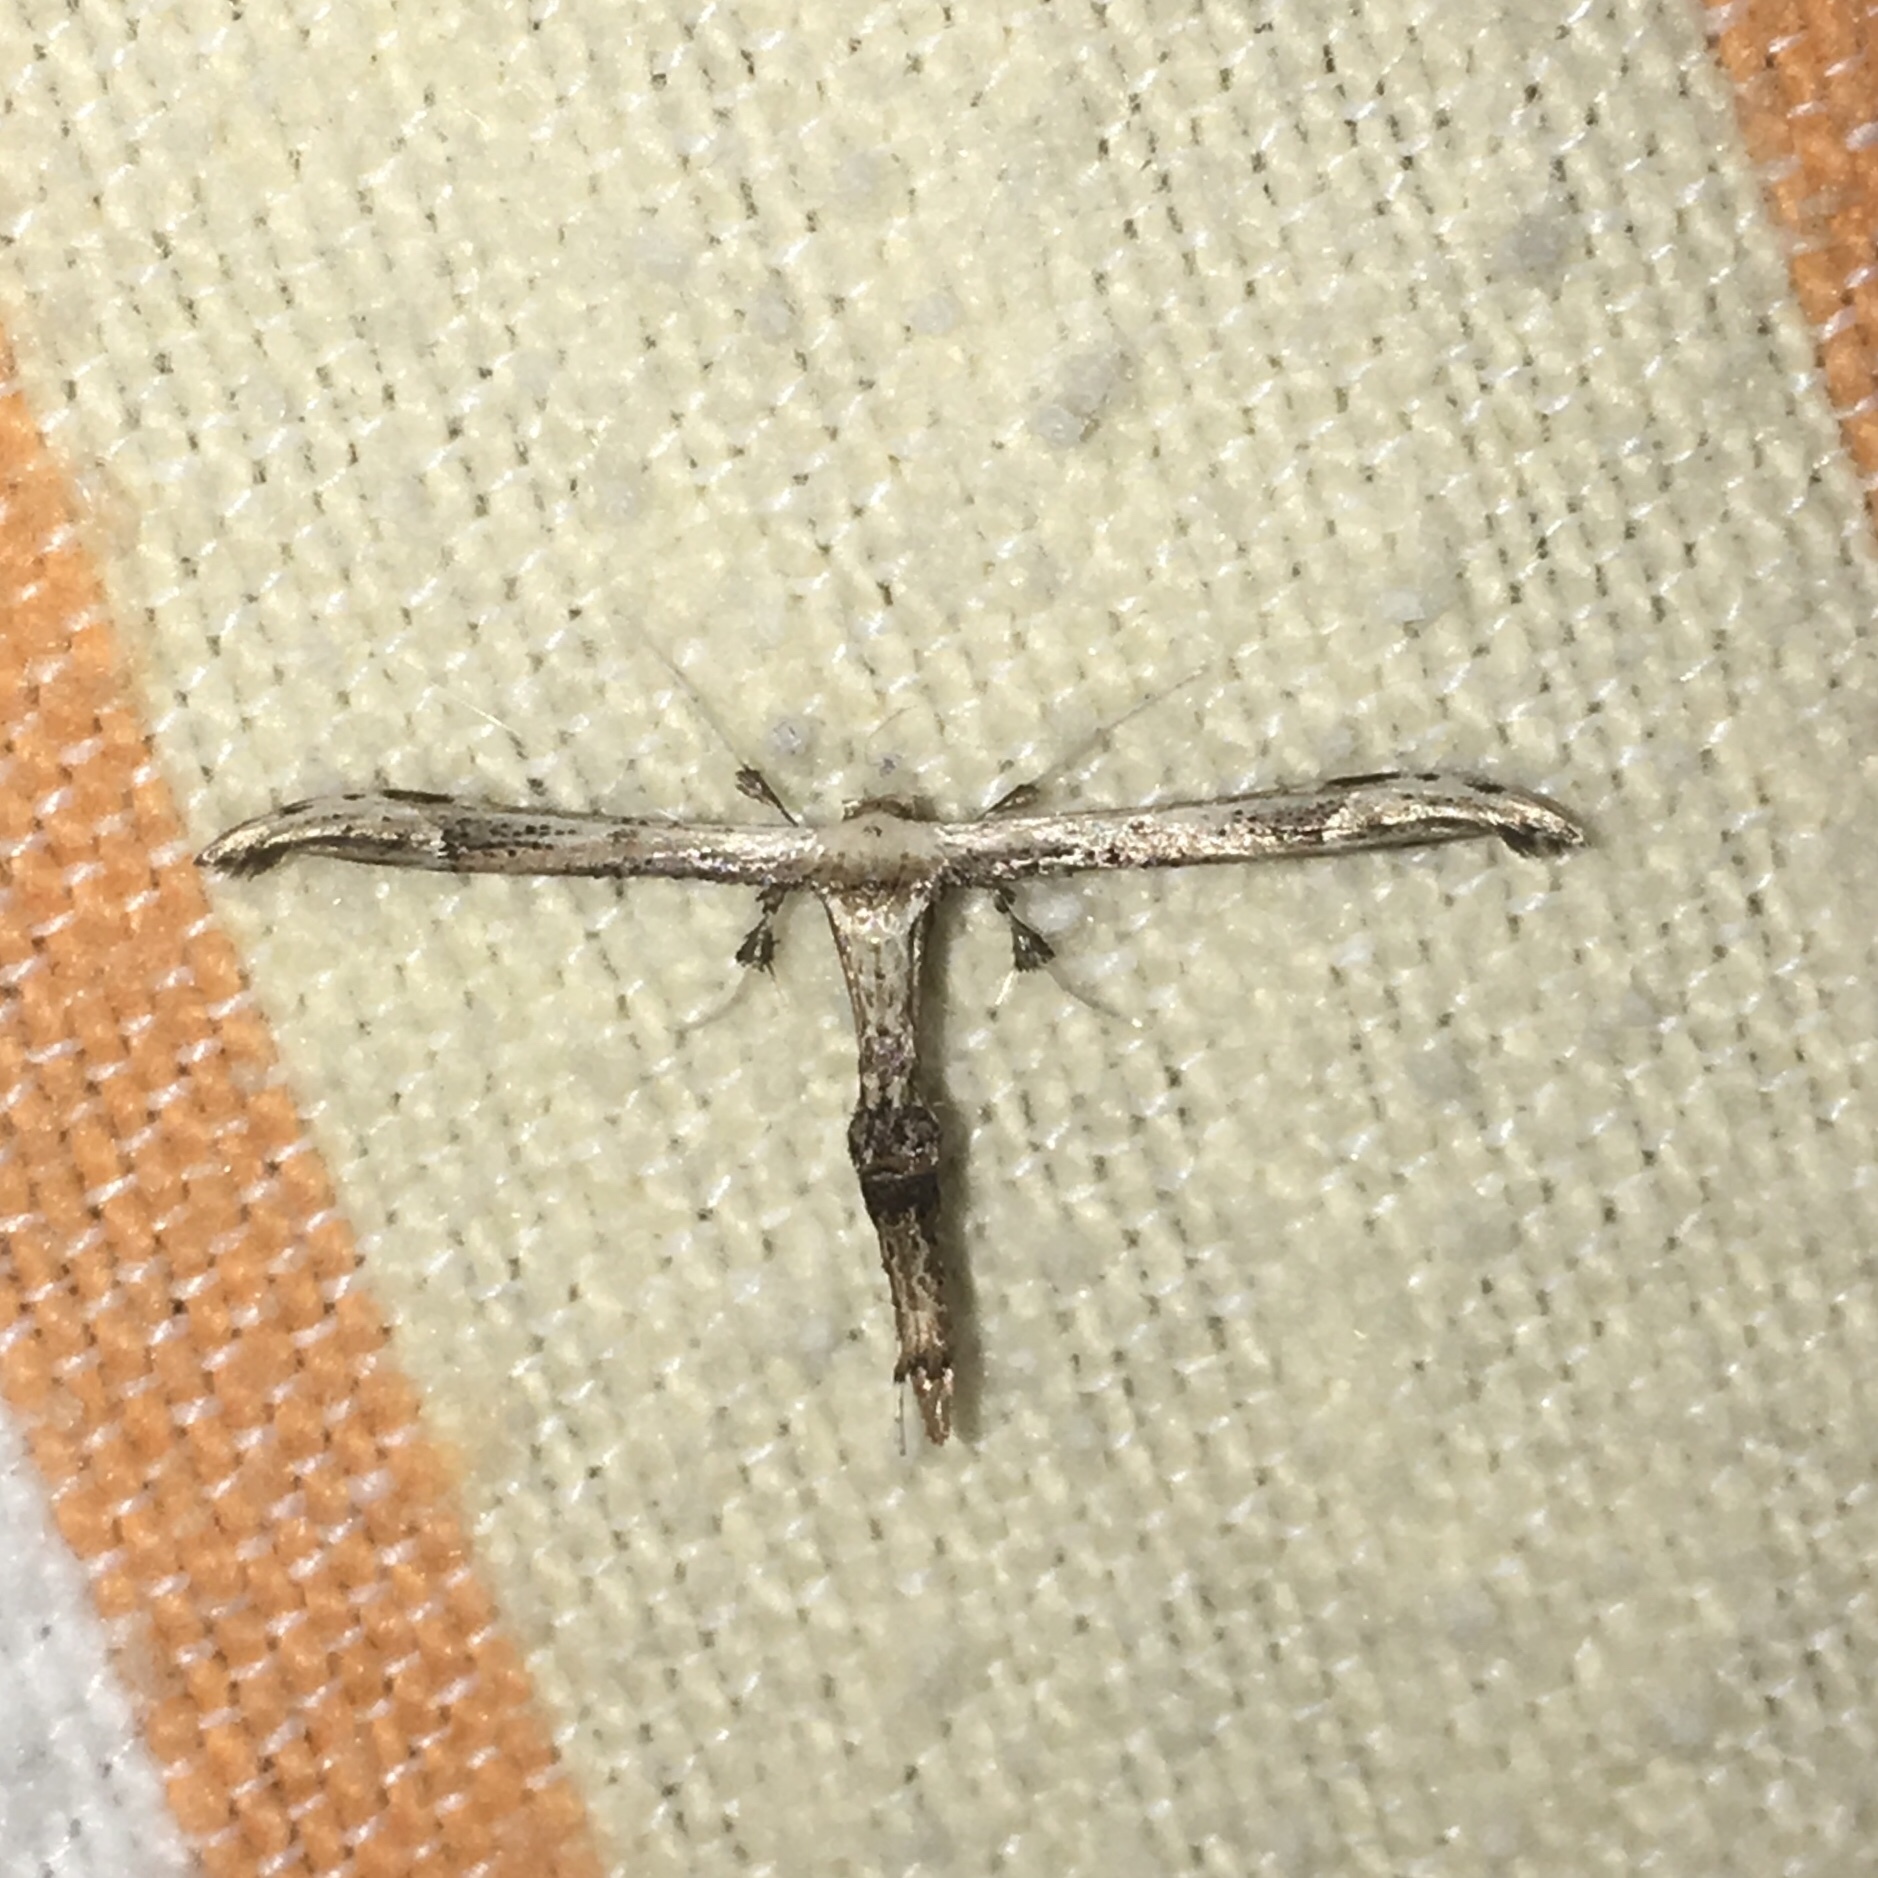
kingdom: Animalia
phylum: Arthropoda
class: Insecta
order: Lepidoptera
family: Pterophoridae
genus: Oidaematophorus
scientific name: Oidaematophorus eupatorii
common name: Eupatorium plume moth
